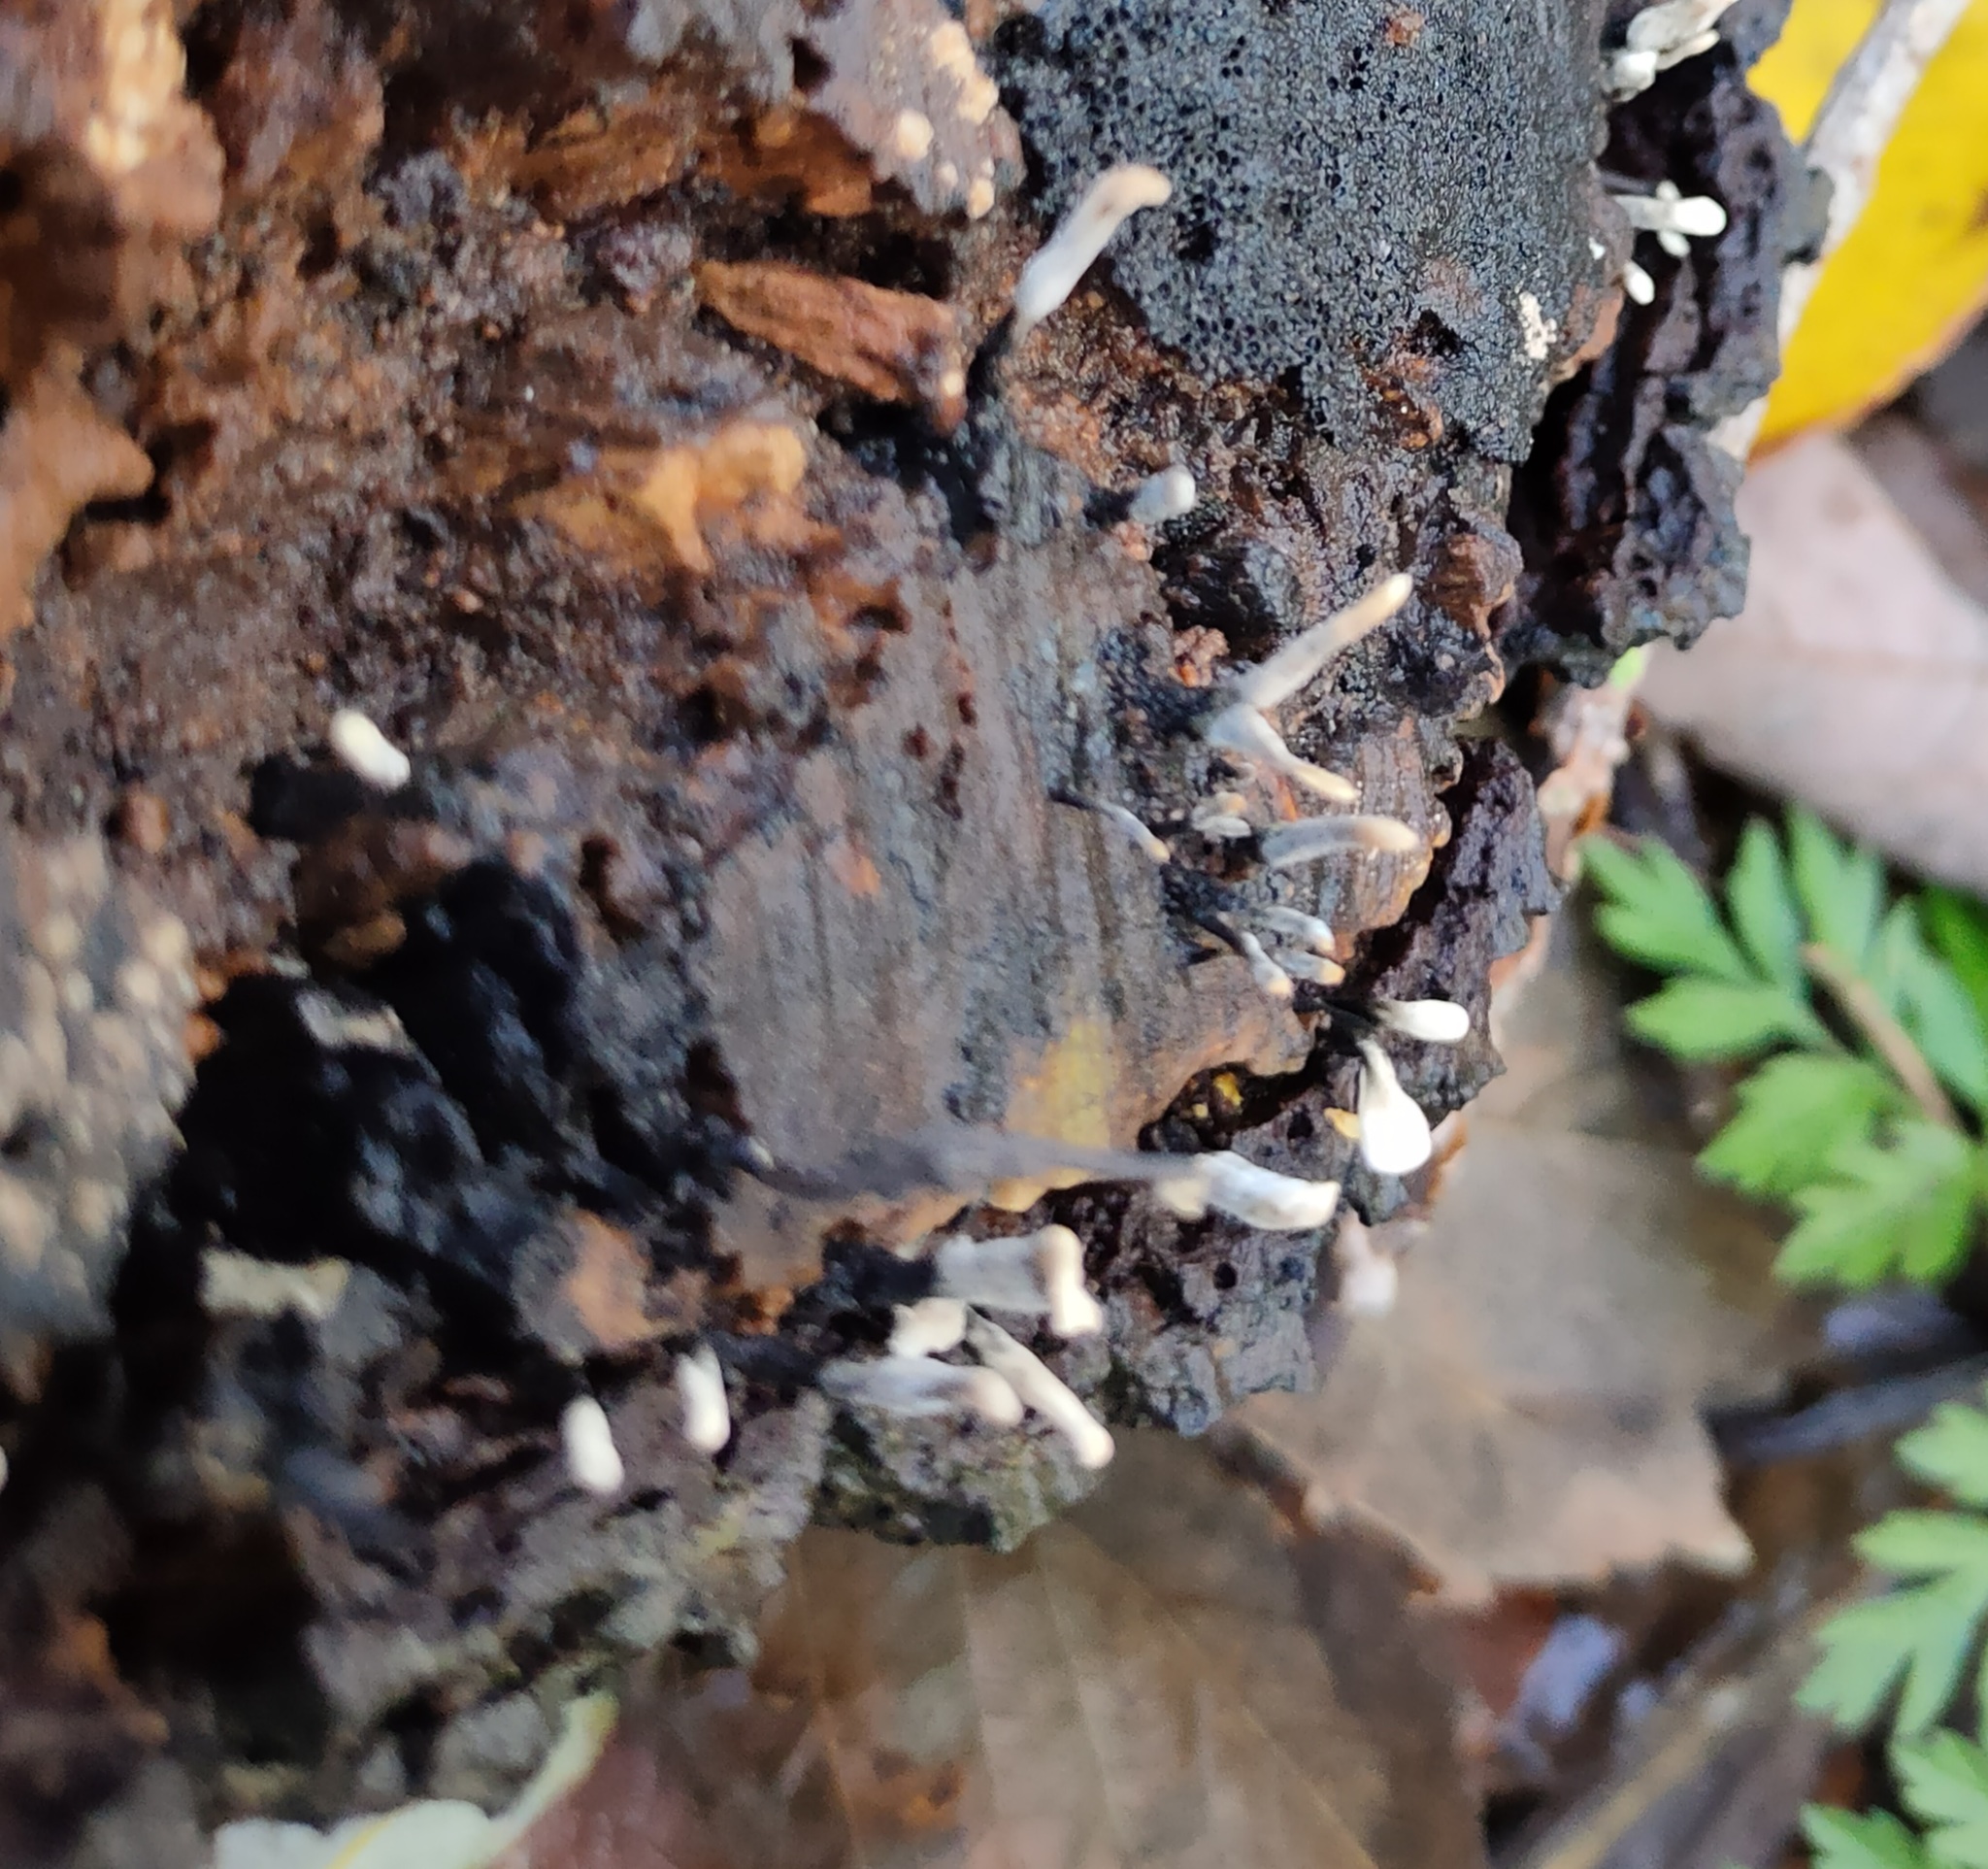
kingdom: Fungi
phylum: Ascomycota
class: Sordariomycetes
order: Xylariales
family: Xylariaceae
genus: Xylaria
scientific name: Xylaria hypoxylon
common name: Candle-snuff fungus
